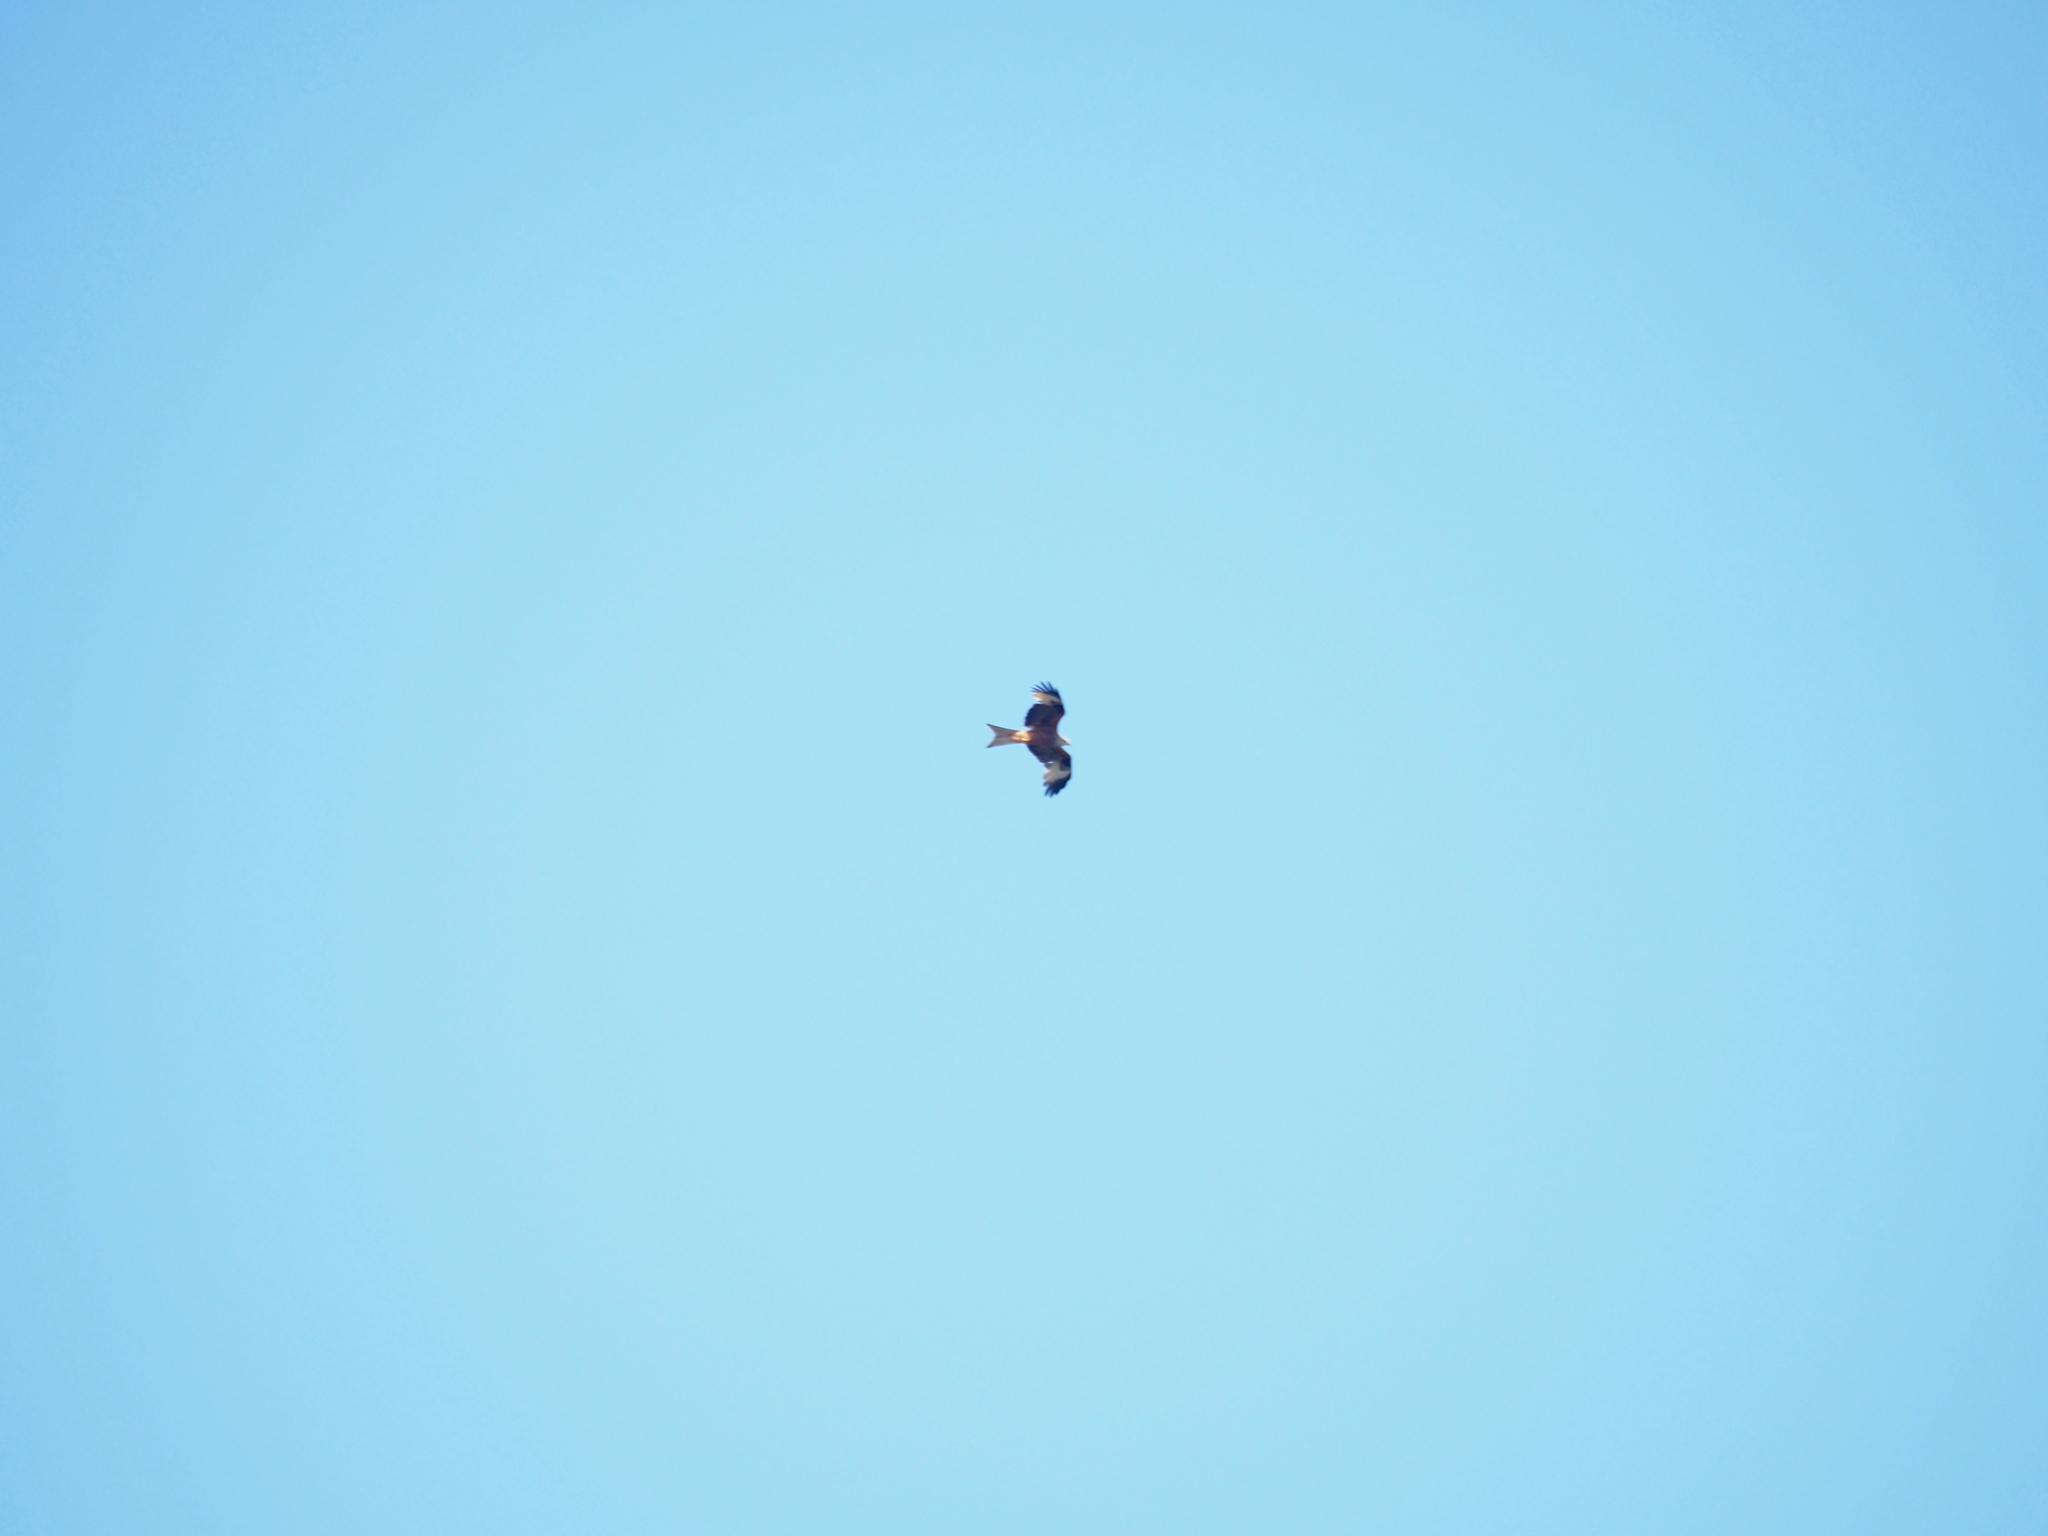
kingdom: Animalia
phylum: Chordata
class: Aves
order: Accipitriformes
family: Accipitridae
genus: Milvus
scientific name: Milvus milvus
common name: Red kite
